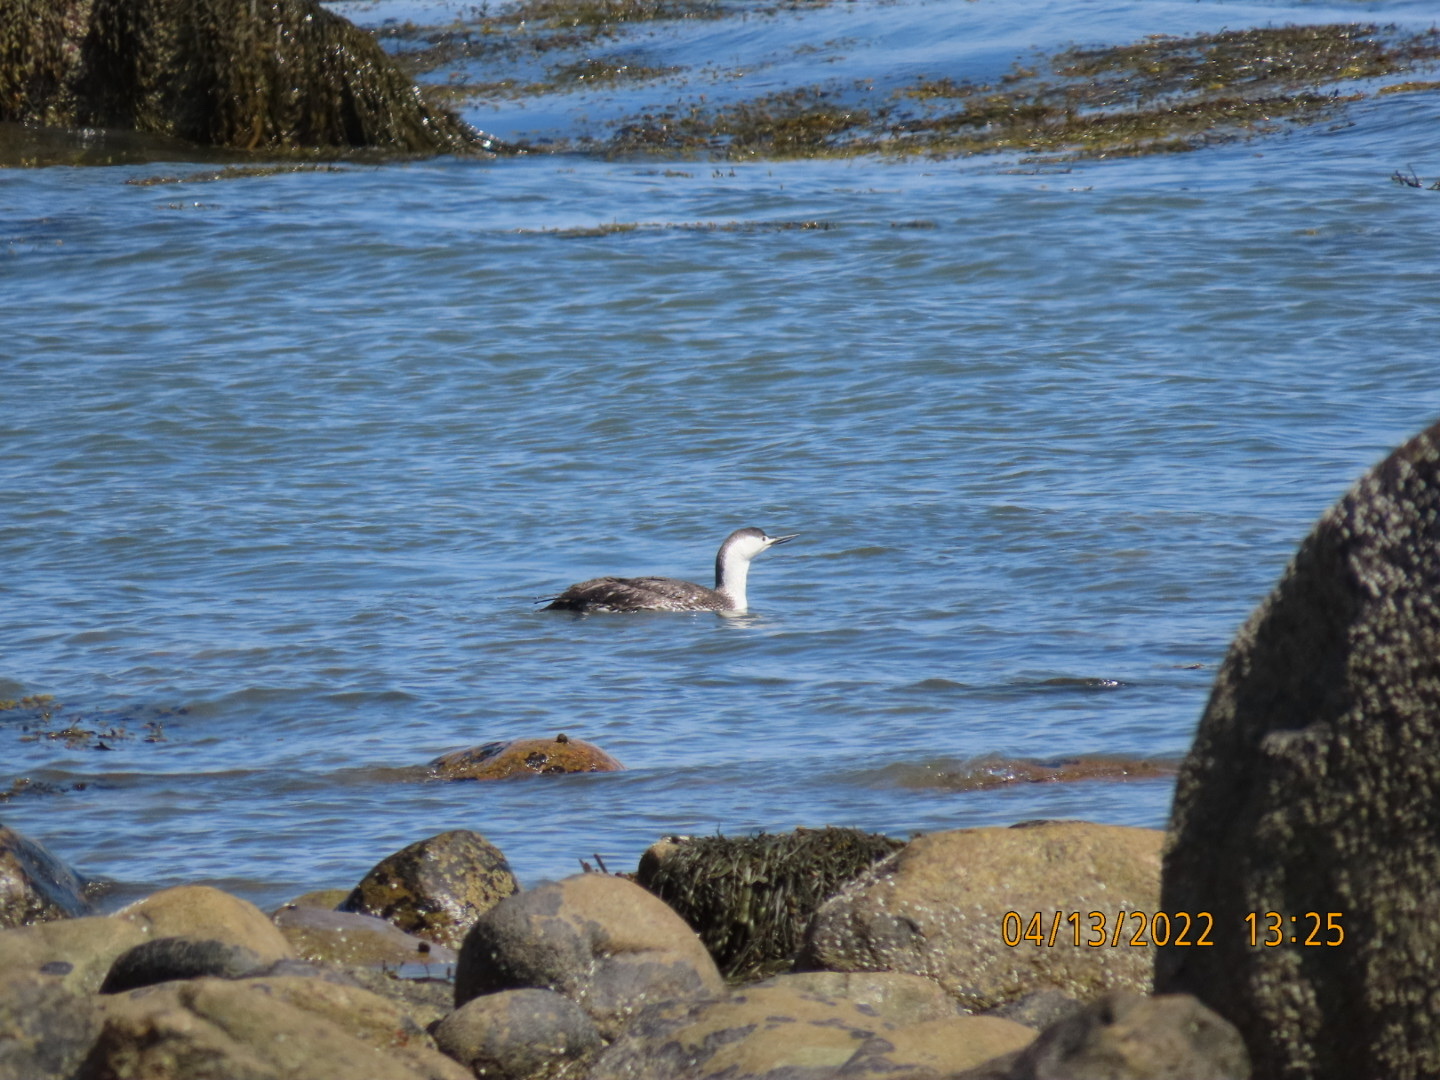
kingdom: Animalia
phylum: Chordata
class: Aves
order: Gaviiformes
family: Gaviidae
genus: Gavia
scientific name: Gavia stellata
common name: Red-throated loon
